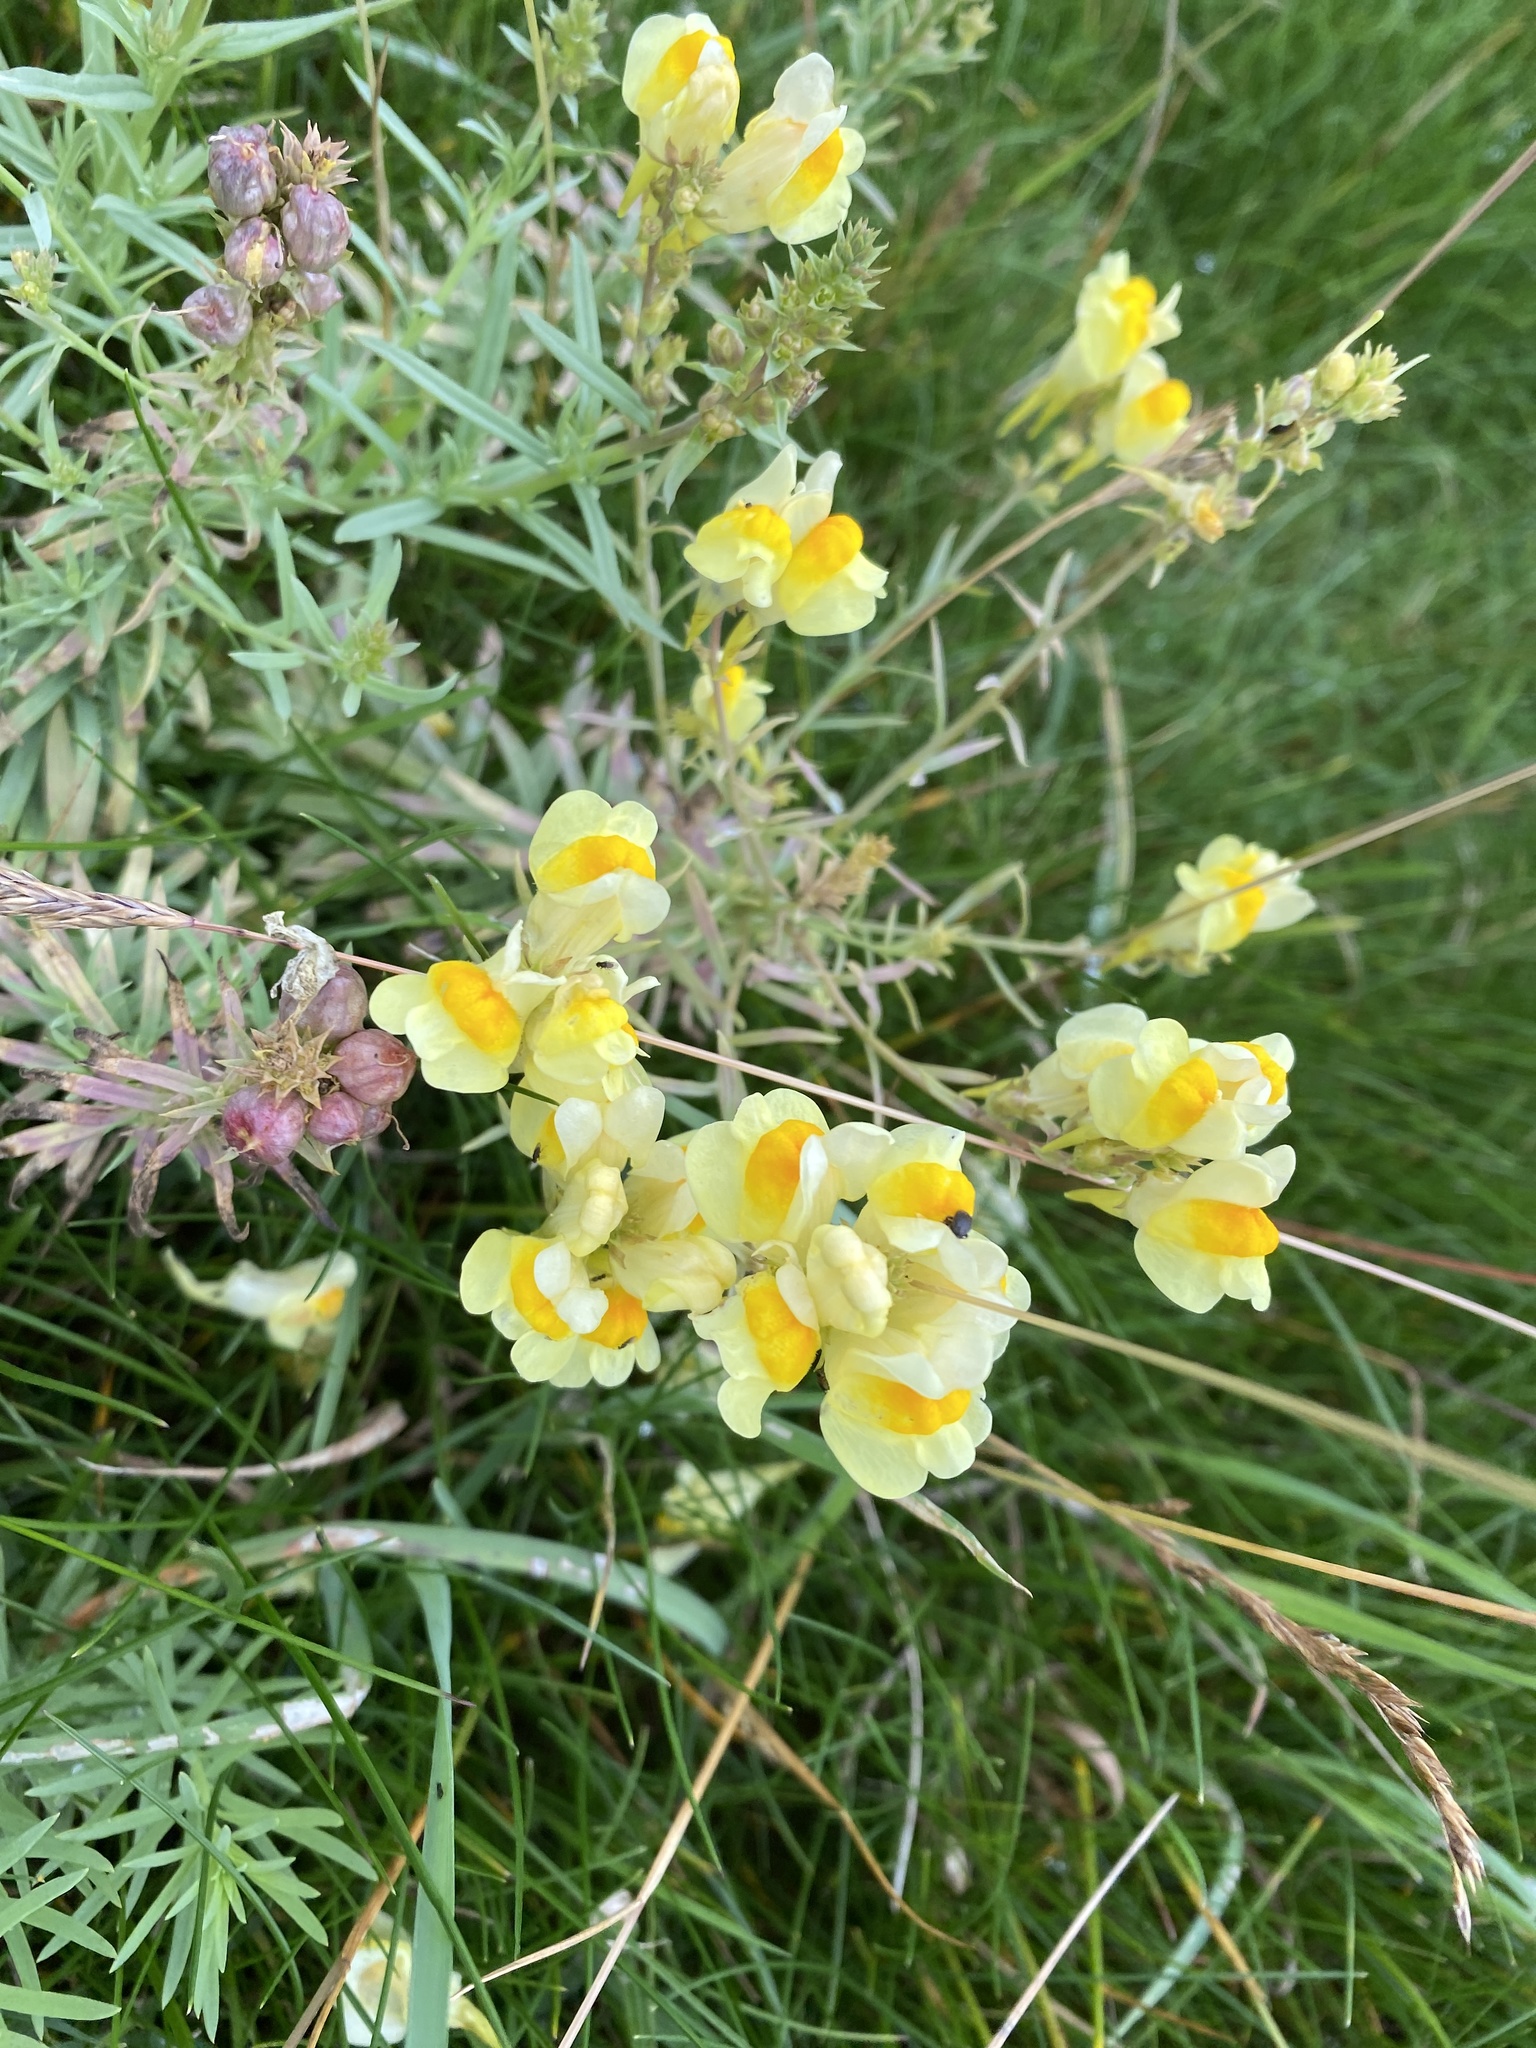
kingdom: Plantae
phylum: Tracheophyta
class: Magnoliopsida
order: Lamiales
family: Plantaginaceae
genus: Linaria
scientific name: Linaria vulgaris
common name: Butter and eggs
